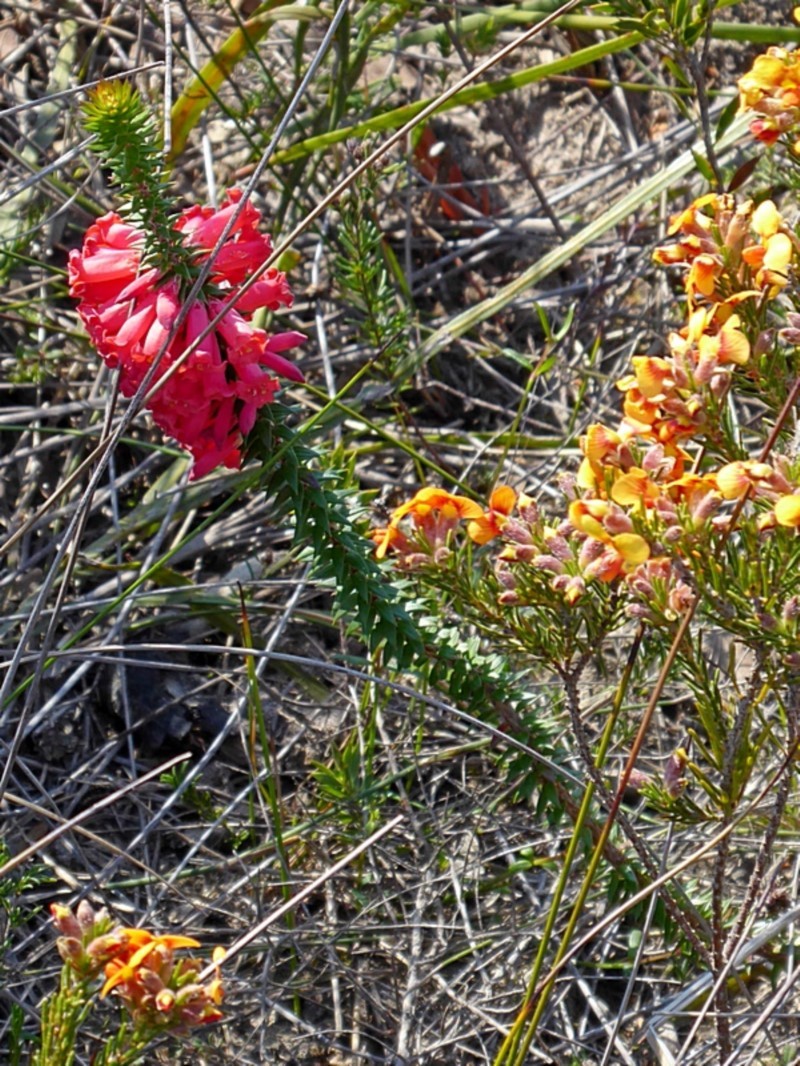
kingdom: Plantae
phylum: Tracheophyta
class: Magnoliopsida
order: Ericales
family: Ericaceae
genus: Epacris
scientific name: Epacris impressa
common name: Common-heath
